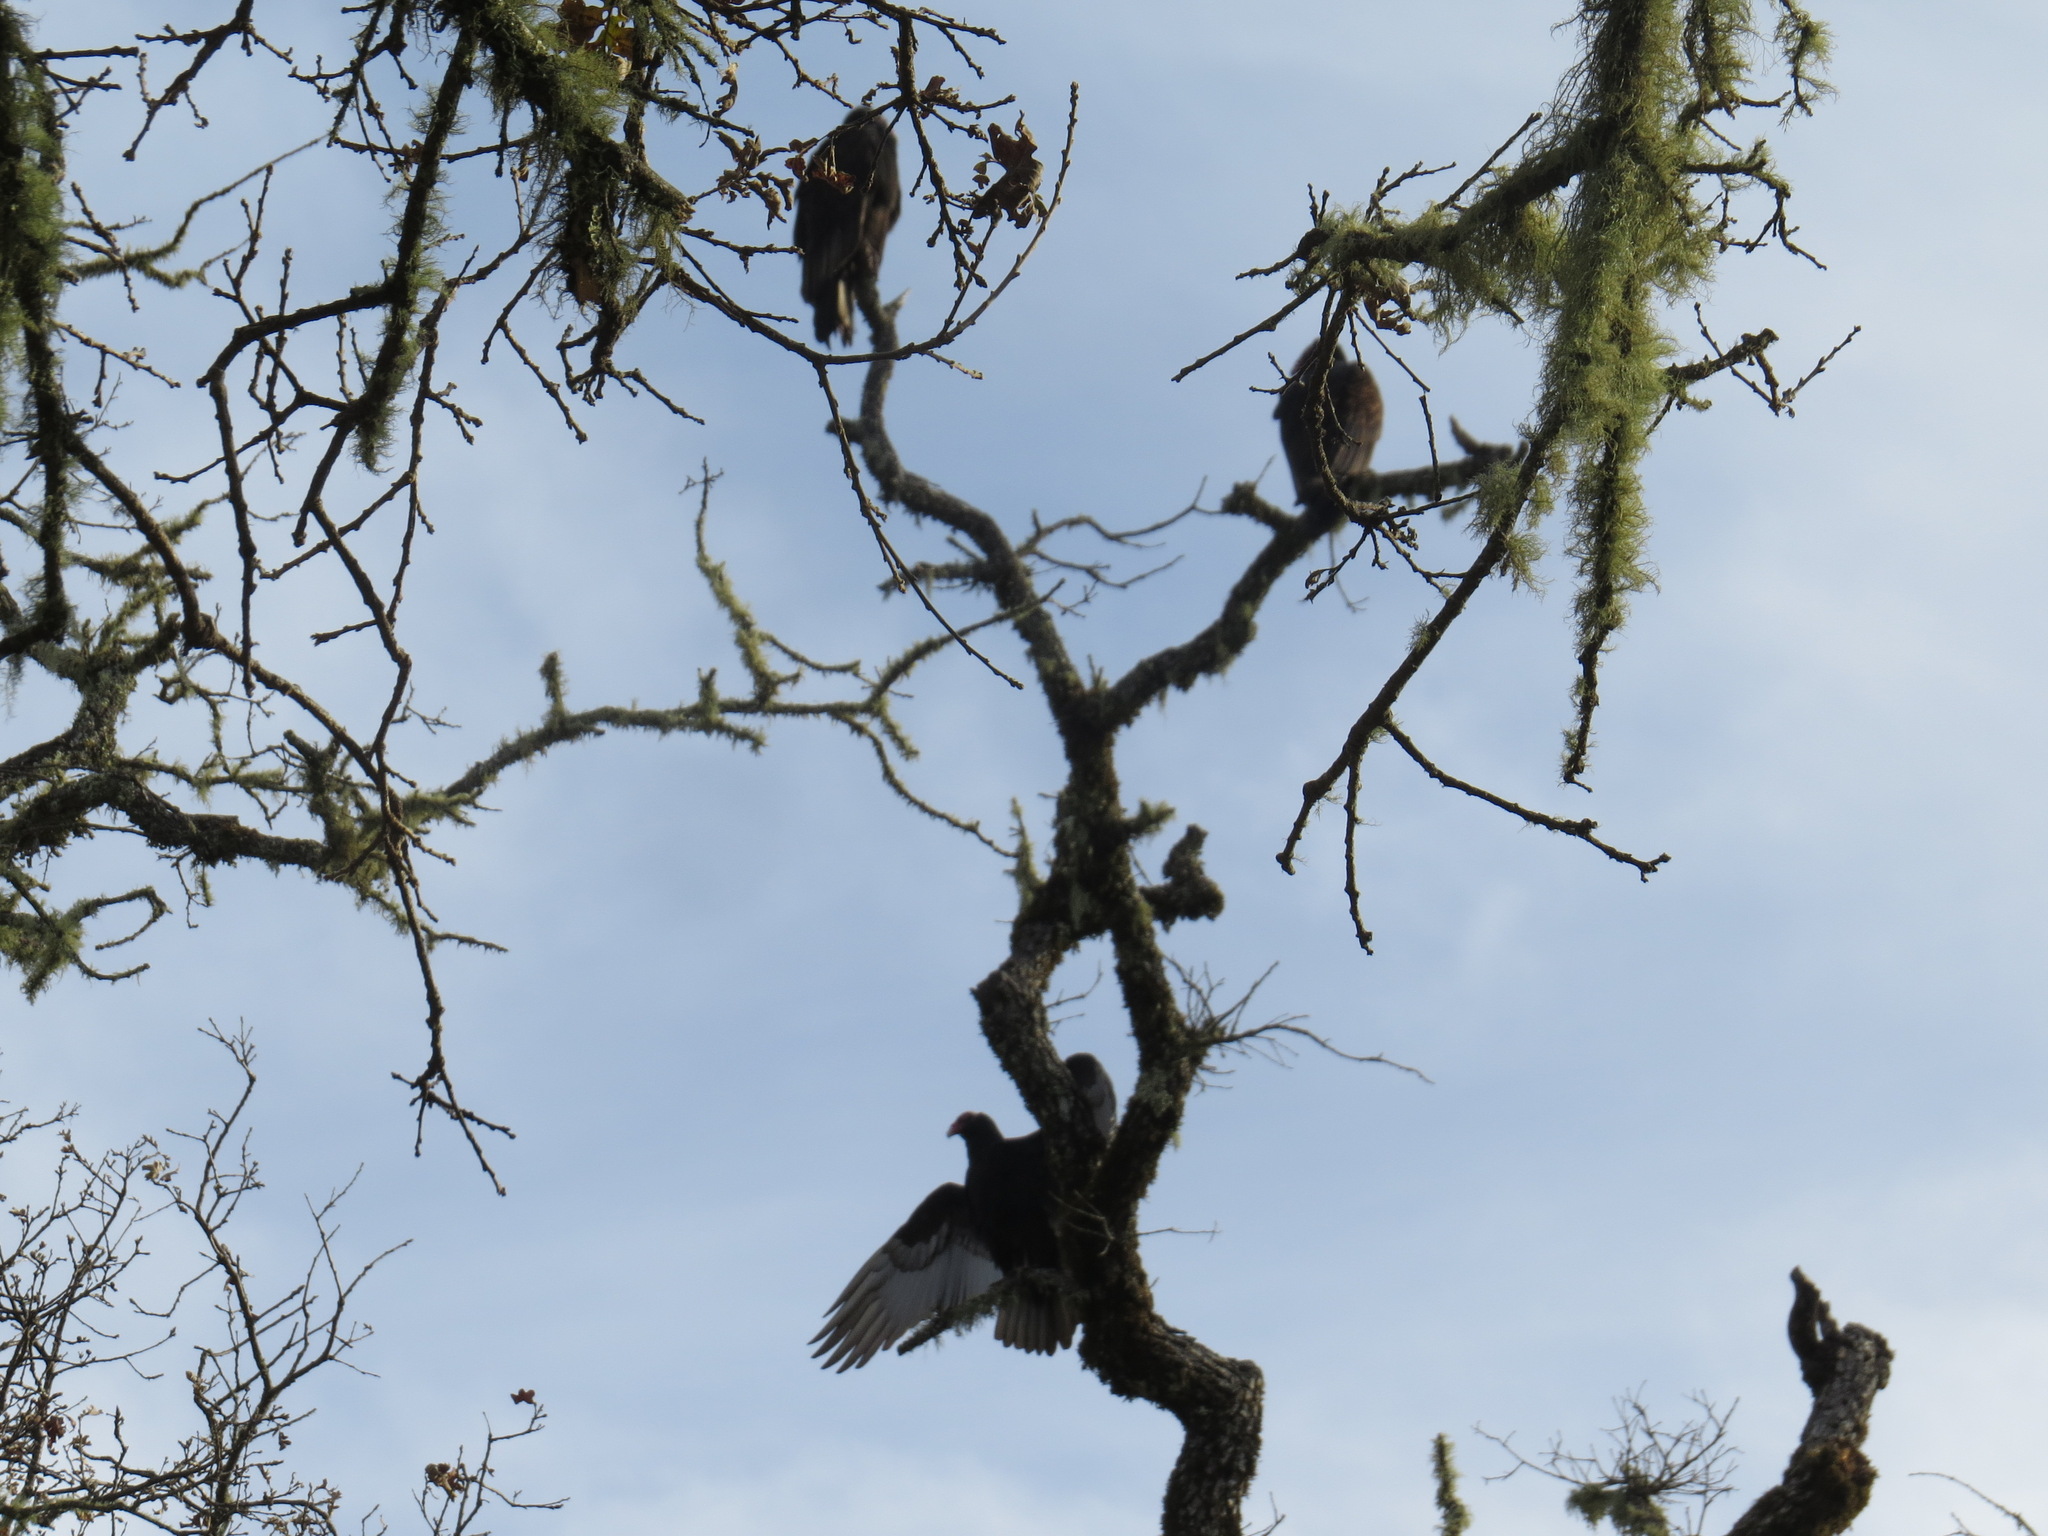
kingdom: Animalia
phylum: Chordata
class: Aves
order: Accipitriformes
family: Cathartidae
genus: Cathartes
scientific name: Cathartes aura
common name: Turkey vulture
